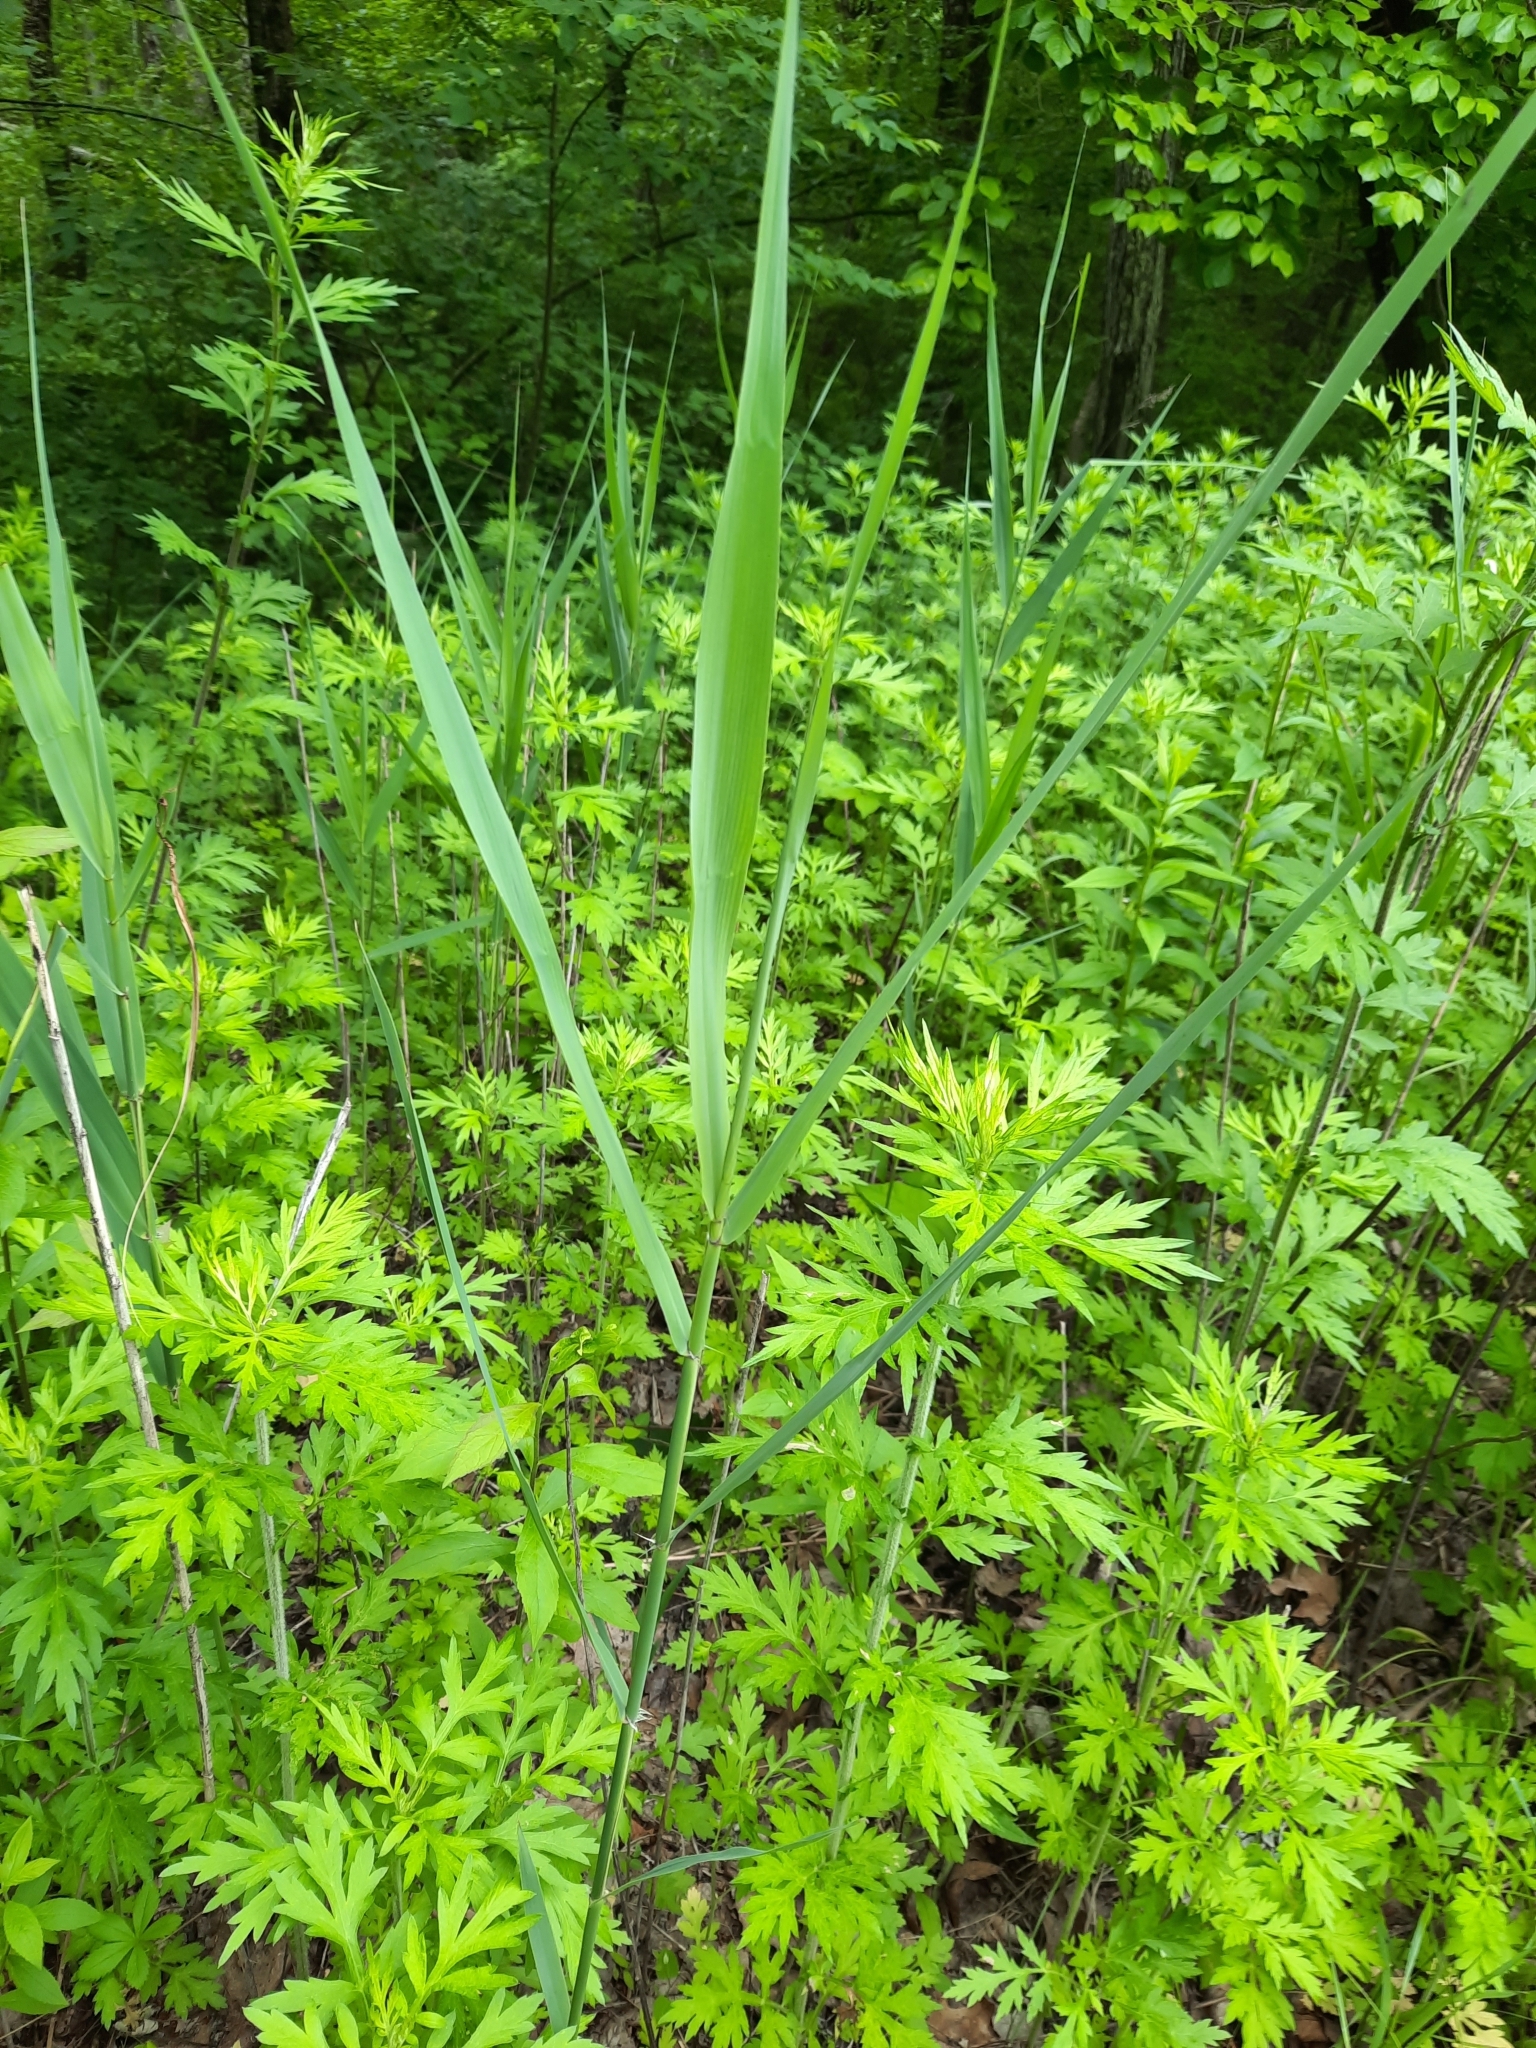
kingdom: Plantae
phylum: Tracheophyta
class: Liliopsida
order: Poales
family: Poaceae
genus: Phragmites
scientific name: Phragmites australis
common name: Common reed
